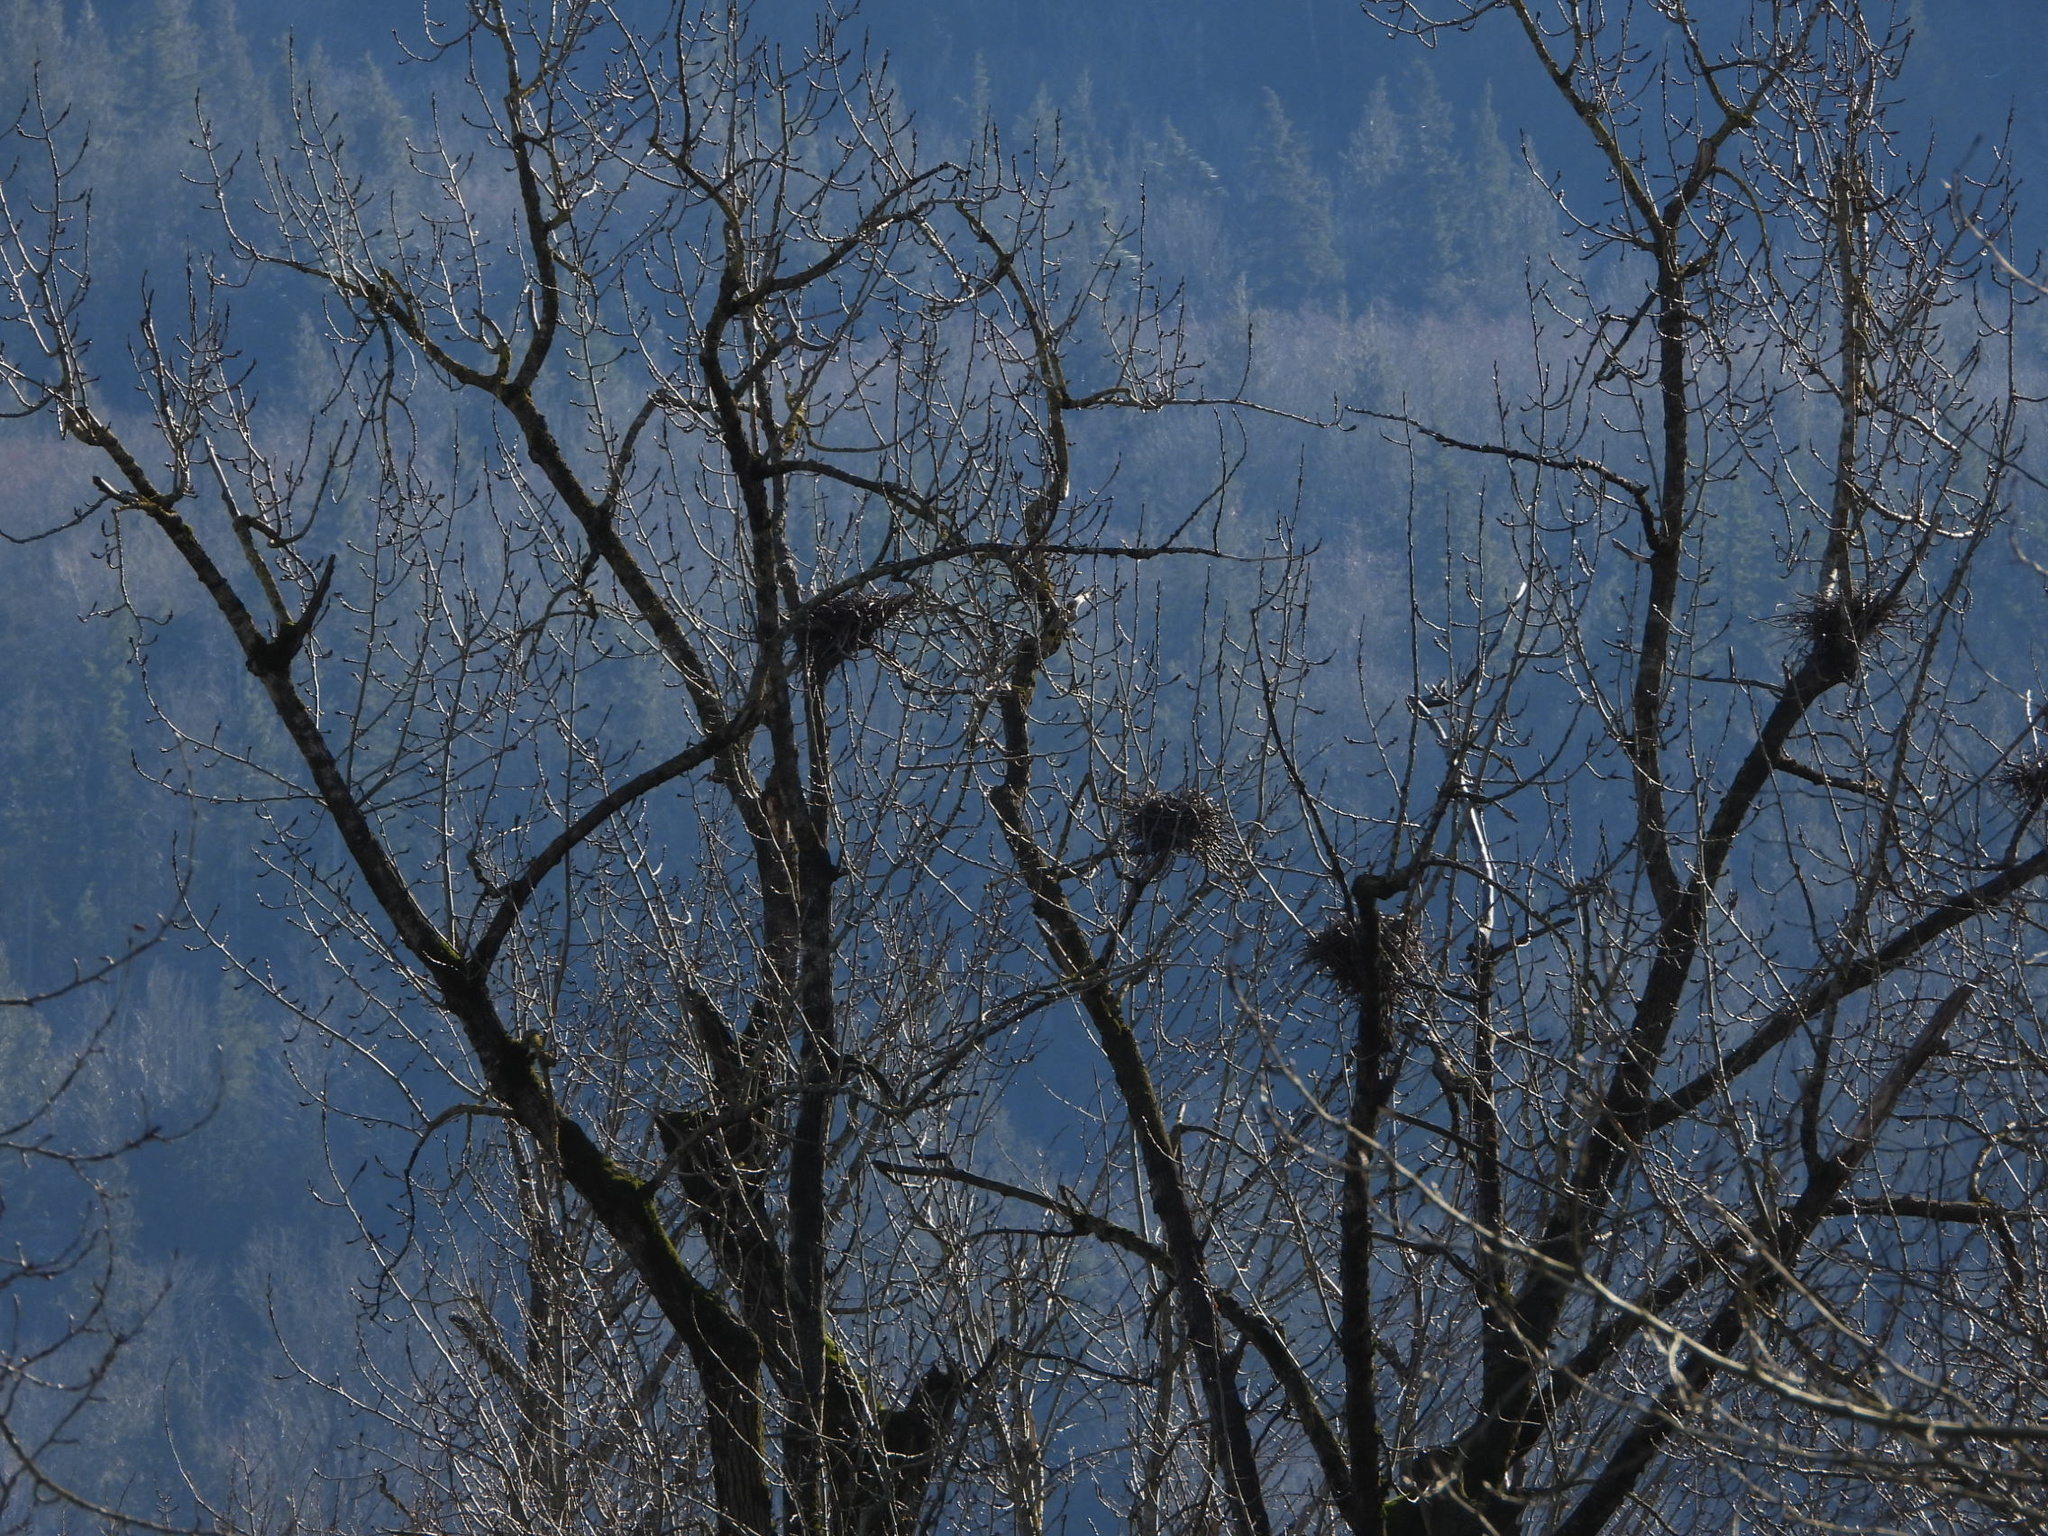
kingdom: Animalia
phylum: Chordata
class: Aves
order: Pelecaniformes
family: Ardeidae
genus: Ardea
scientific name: Ardea herodias
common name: Great blue heron
